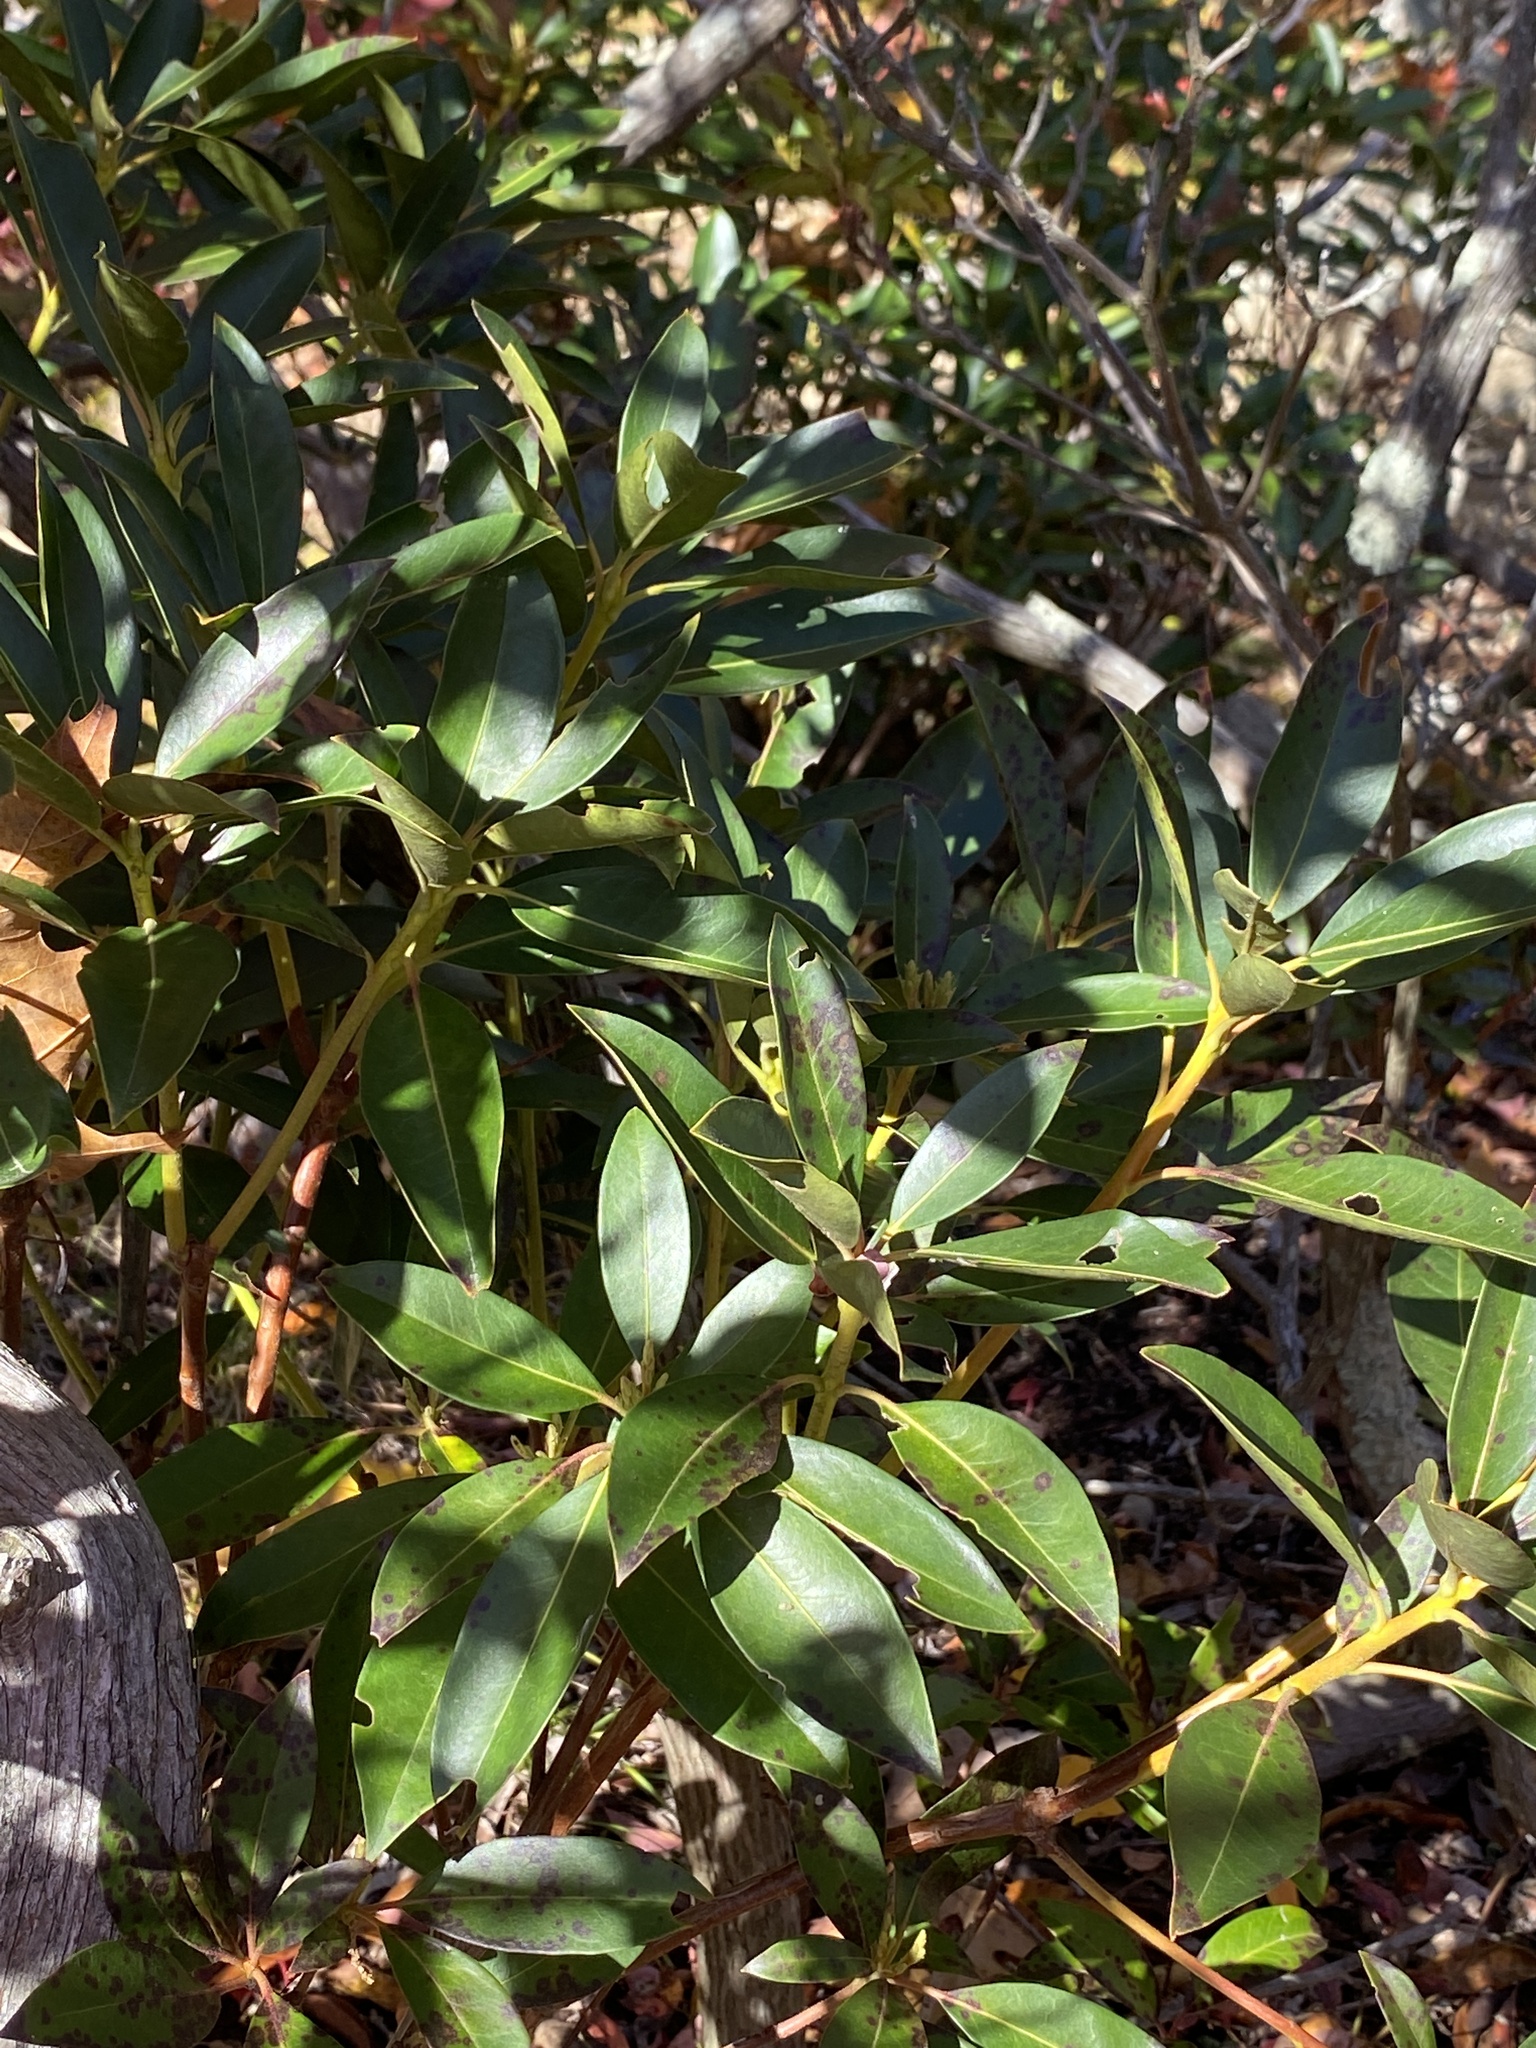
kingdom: Plantae
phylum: Tracheophyta
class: Magnoliopsida
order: Ericales
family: Ericaceae
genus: Kalmia
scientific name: Kalmia latifolia
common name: Mountain-laurel
